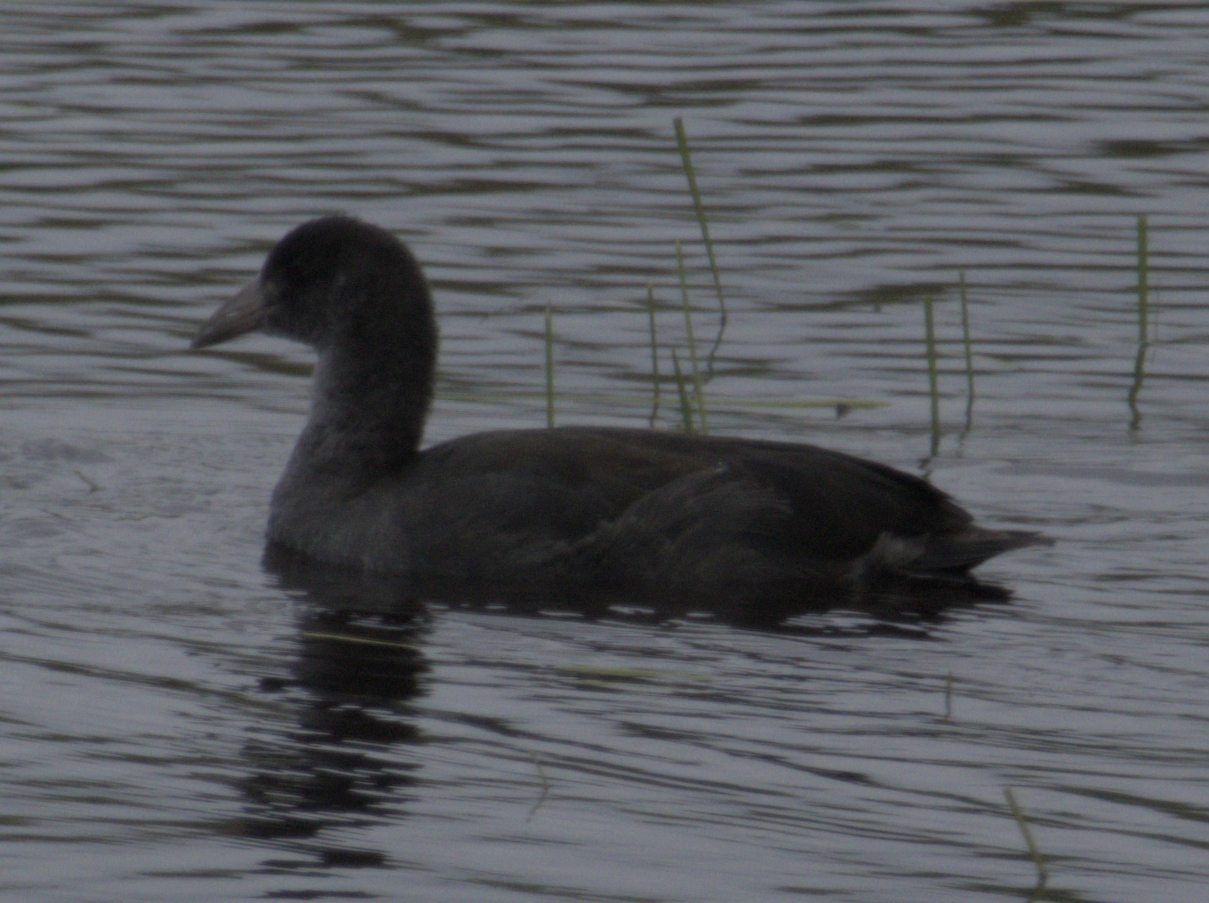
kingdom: Animalia
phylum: Chordata
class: Aves
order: Gruiformes
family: Rallidae
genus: Fulica
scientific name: Fulica americana
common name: American coot
